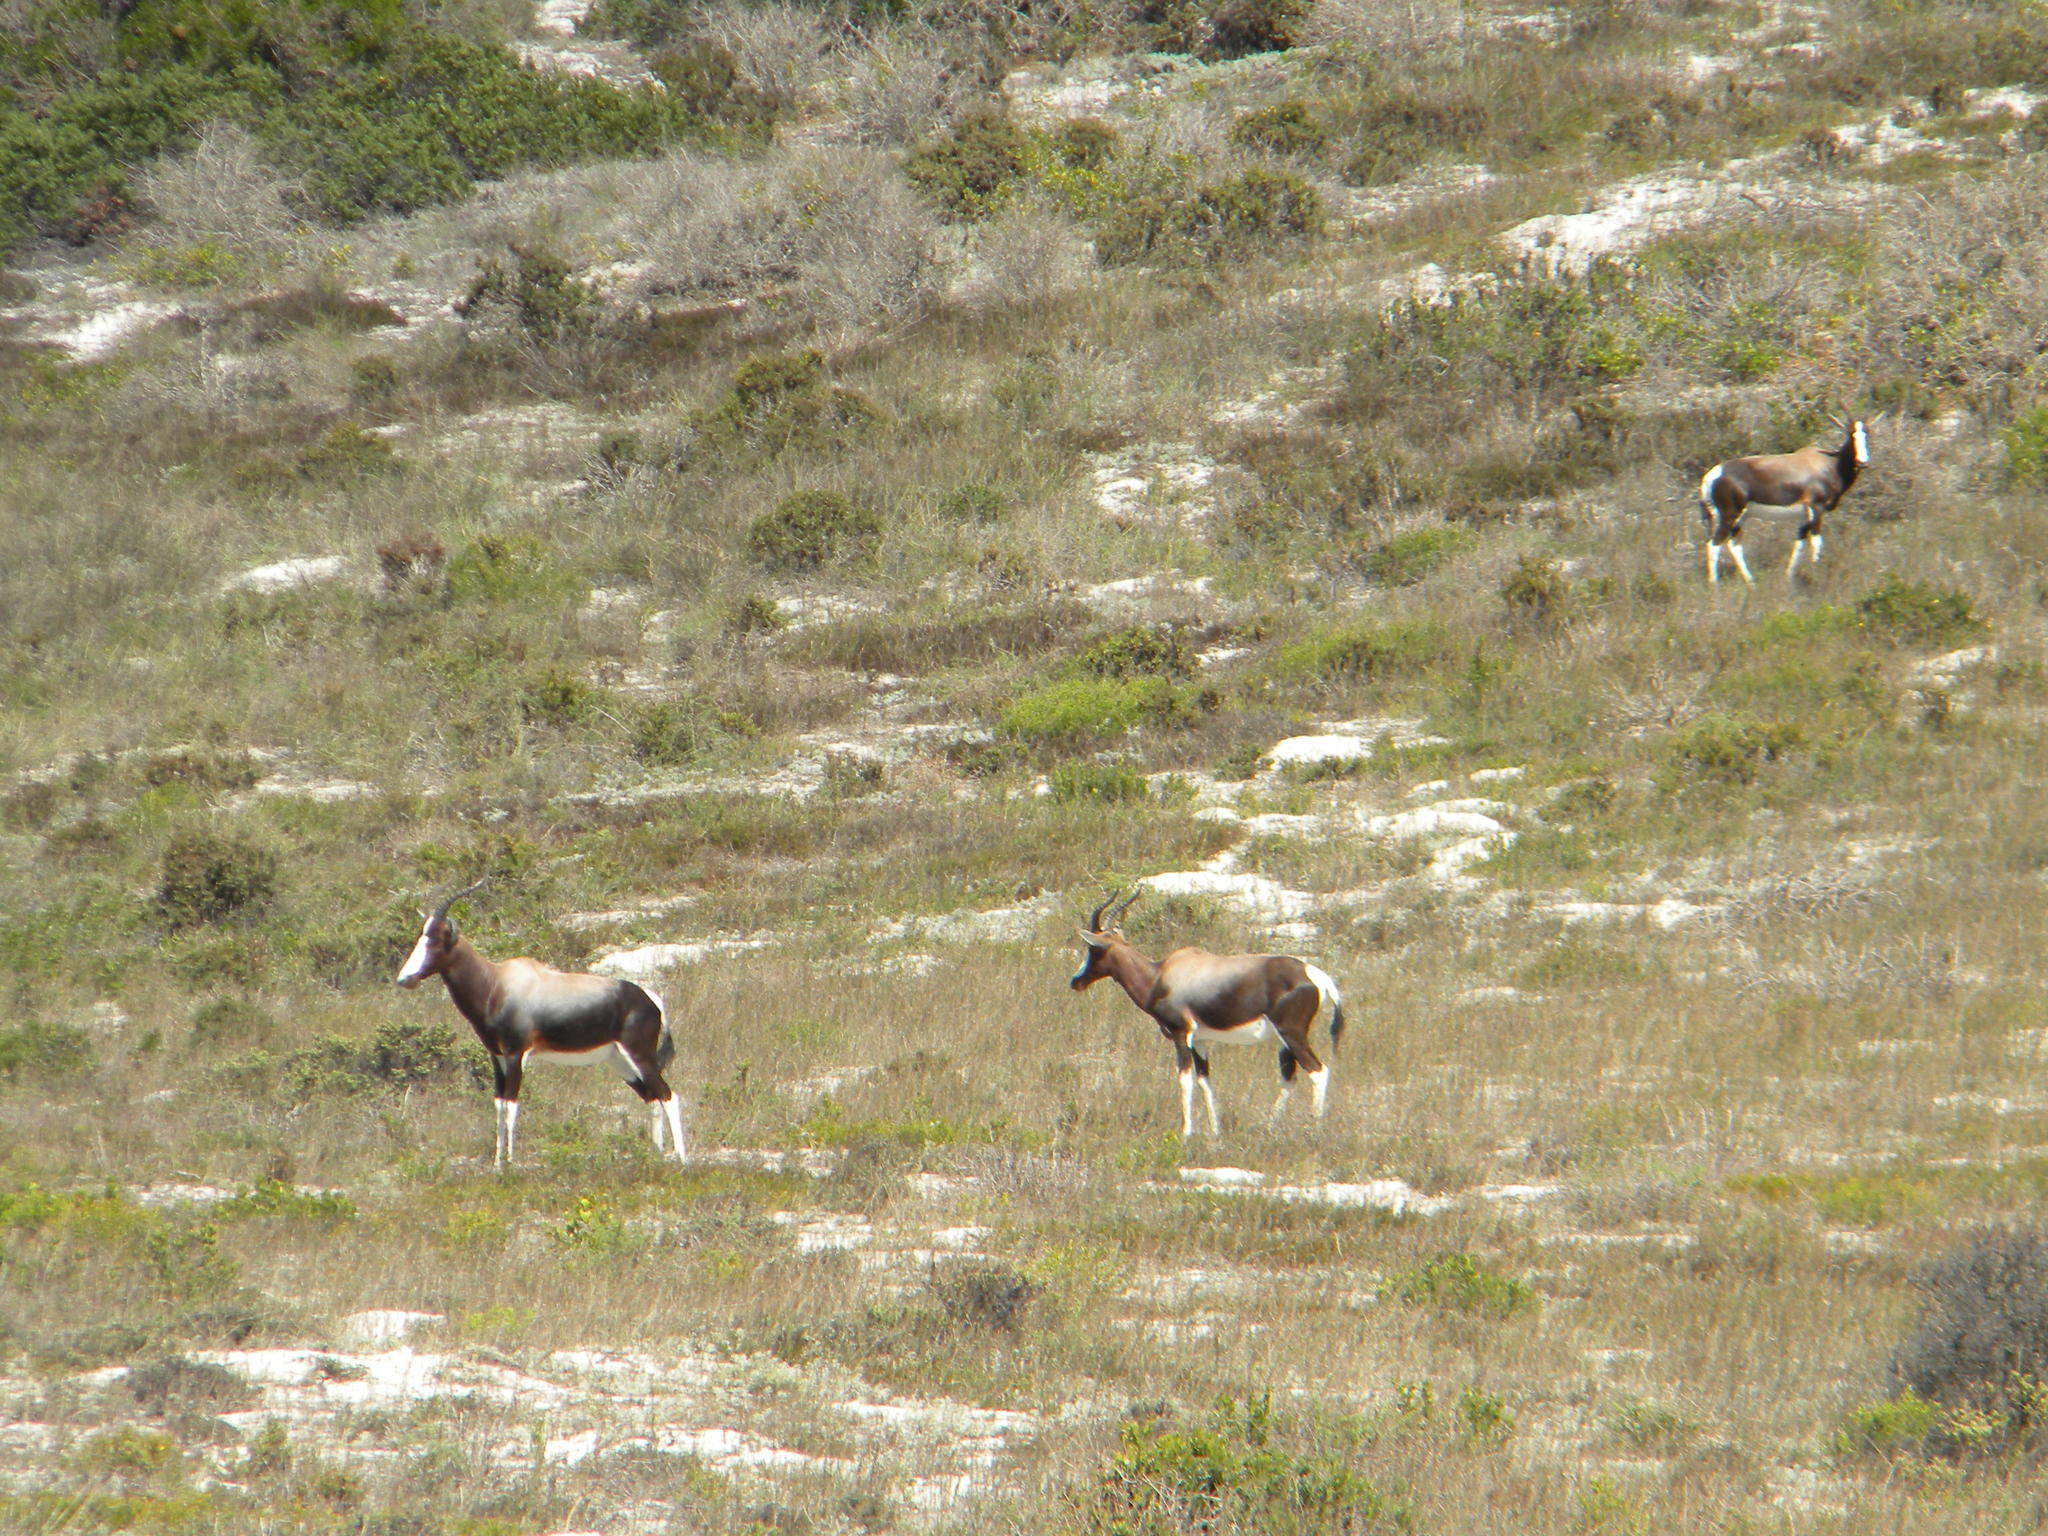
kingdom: Animalia
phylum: Chordata
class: Mammalia
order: Artiodactyla
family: Bovidae
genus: Damaliscus
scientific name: Damaliscus pygargus
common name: Bontebok
